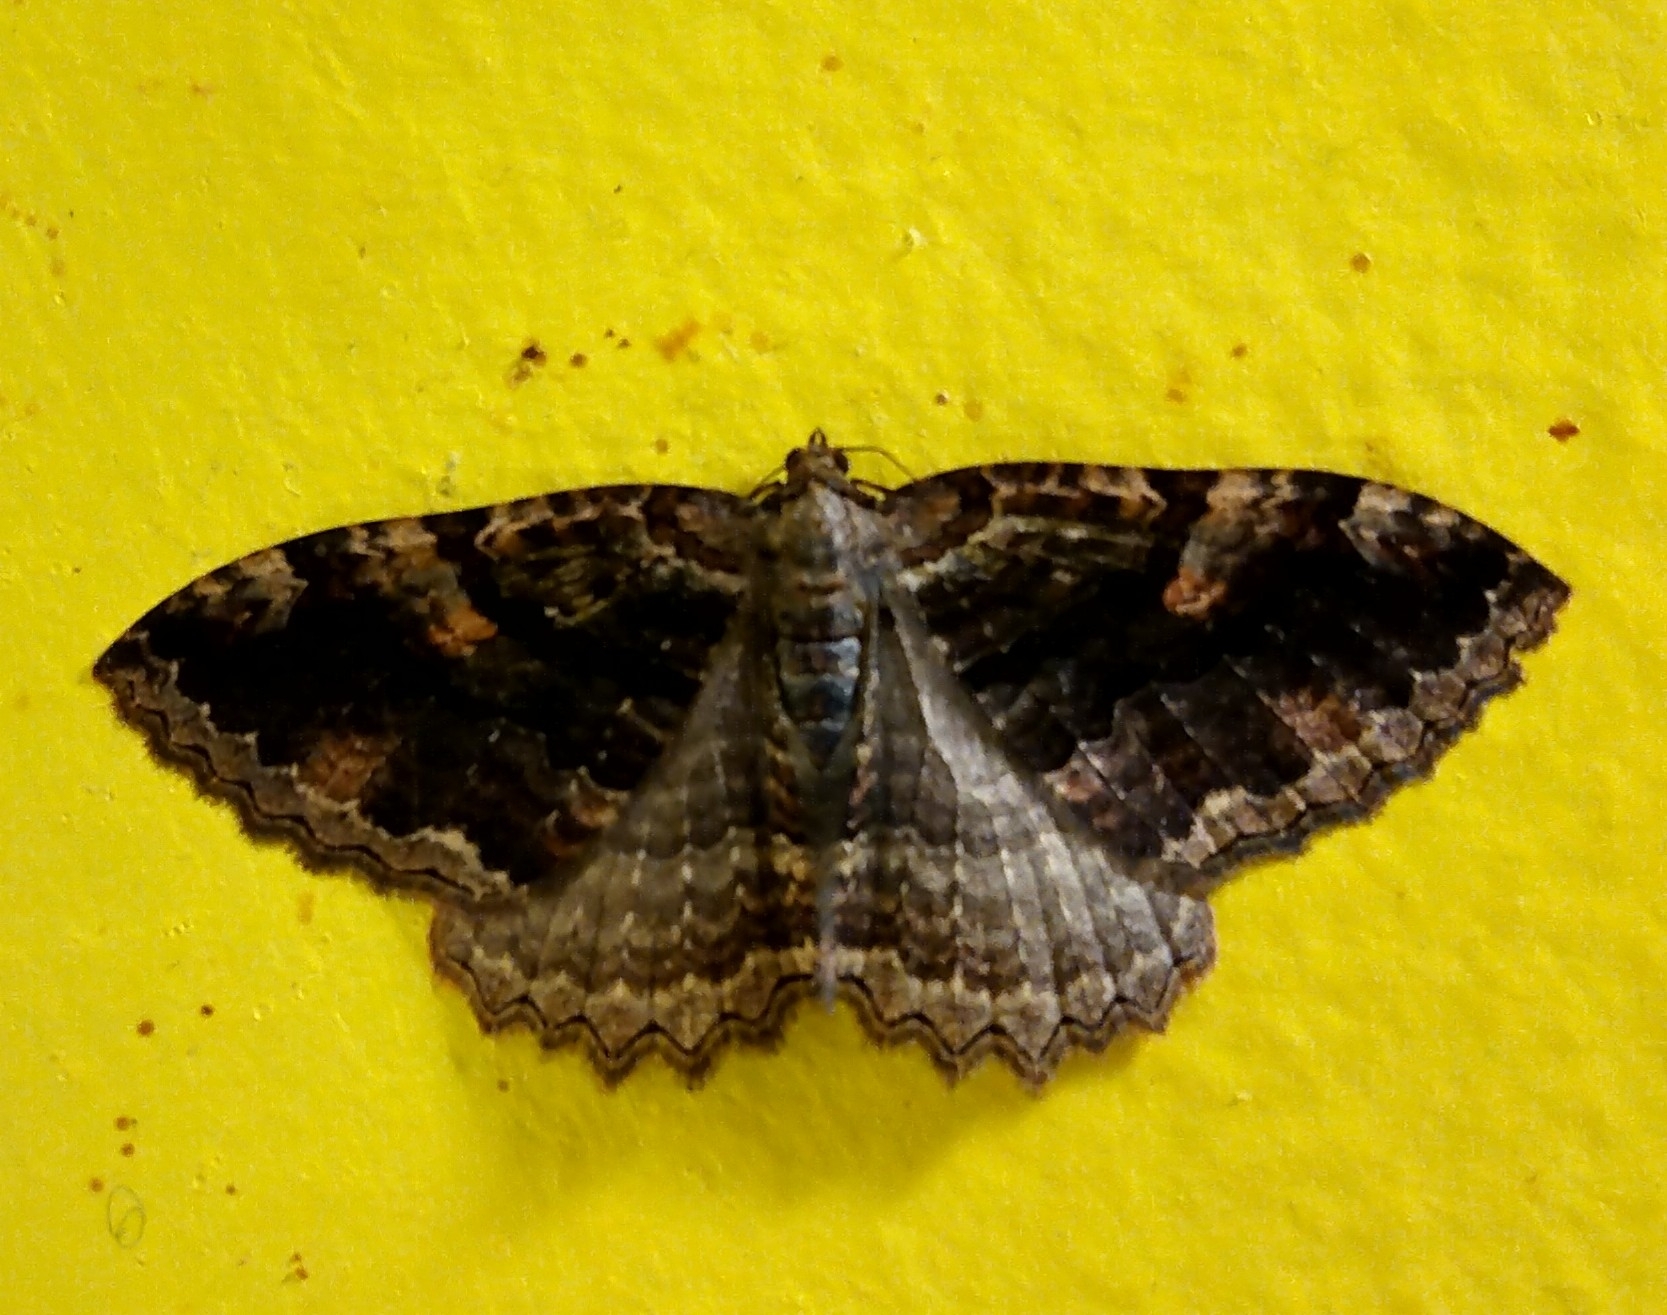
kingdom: Animalia
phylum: Arthropoda
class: Insecta
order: Lepidoptera
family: Geometridae
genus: Triphosa
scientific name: Triphosa haesitata
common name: Tissue moth
